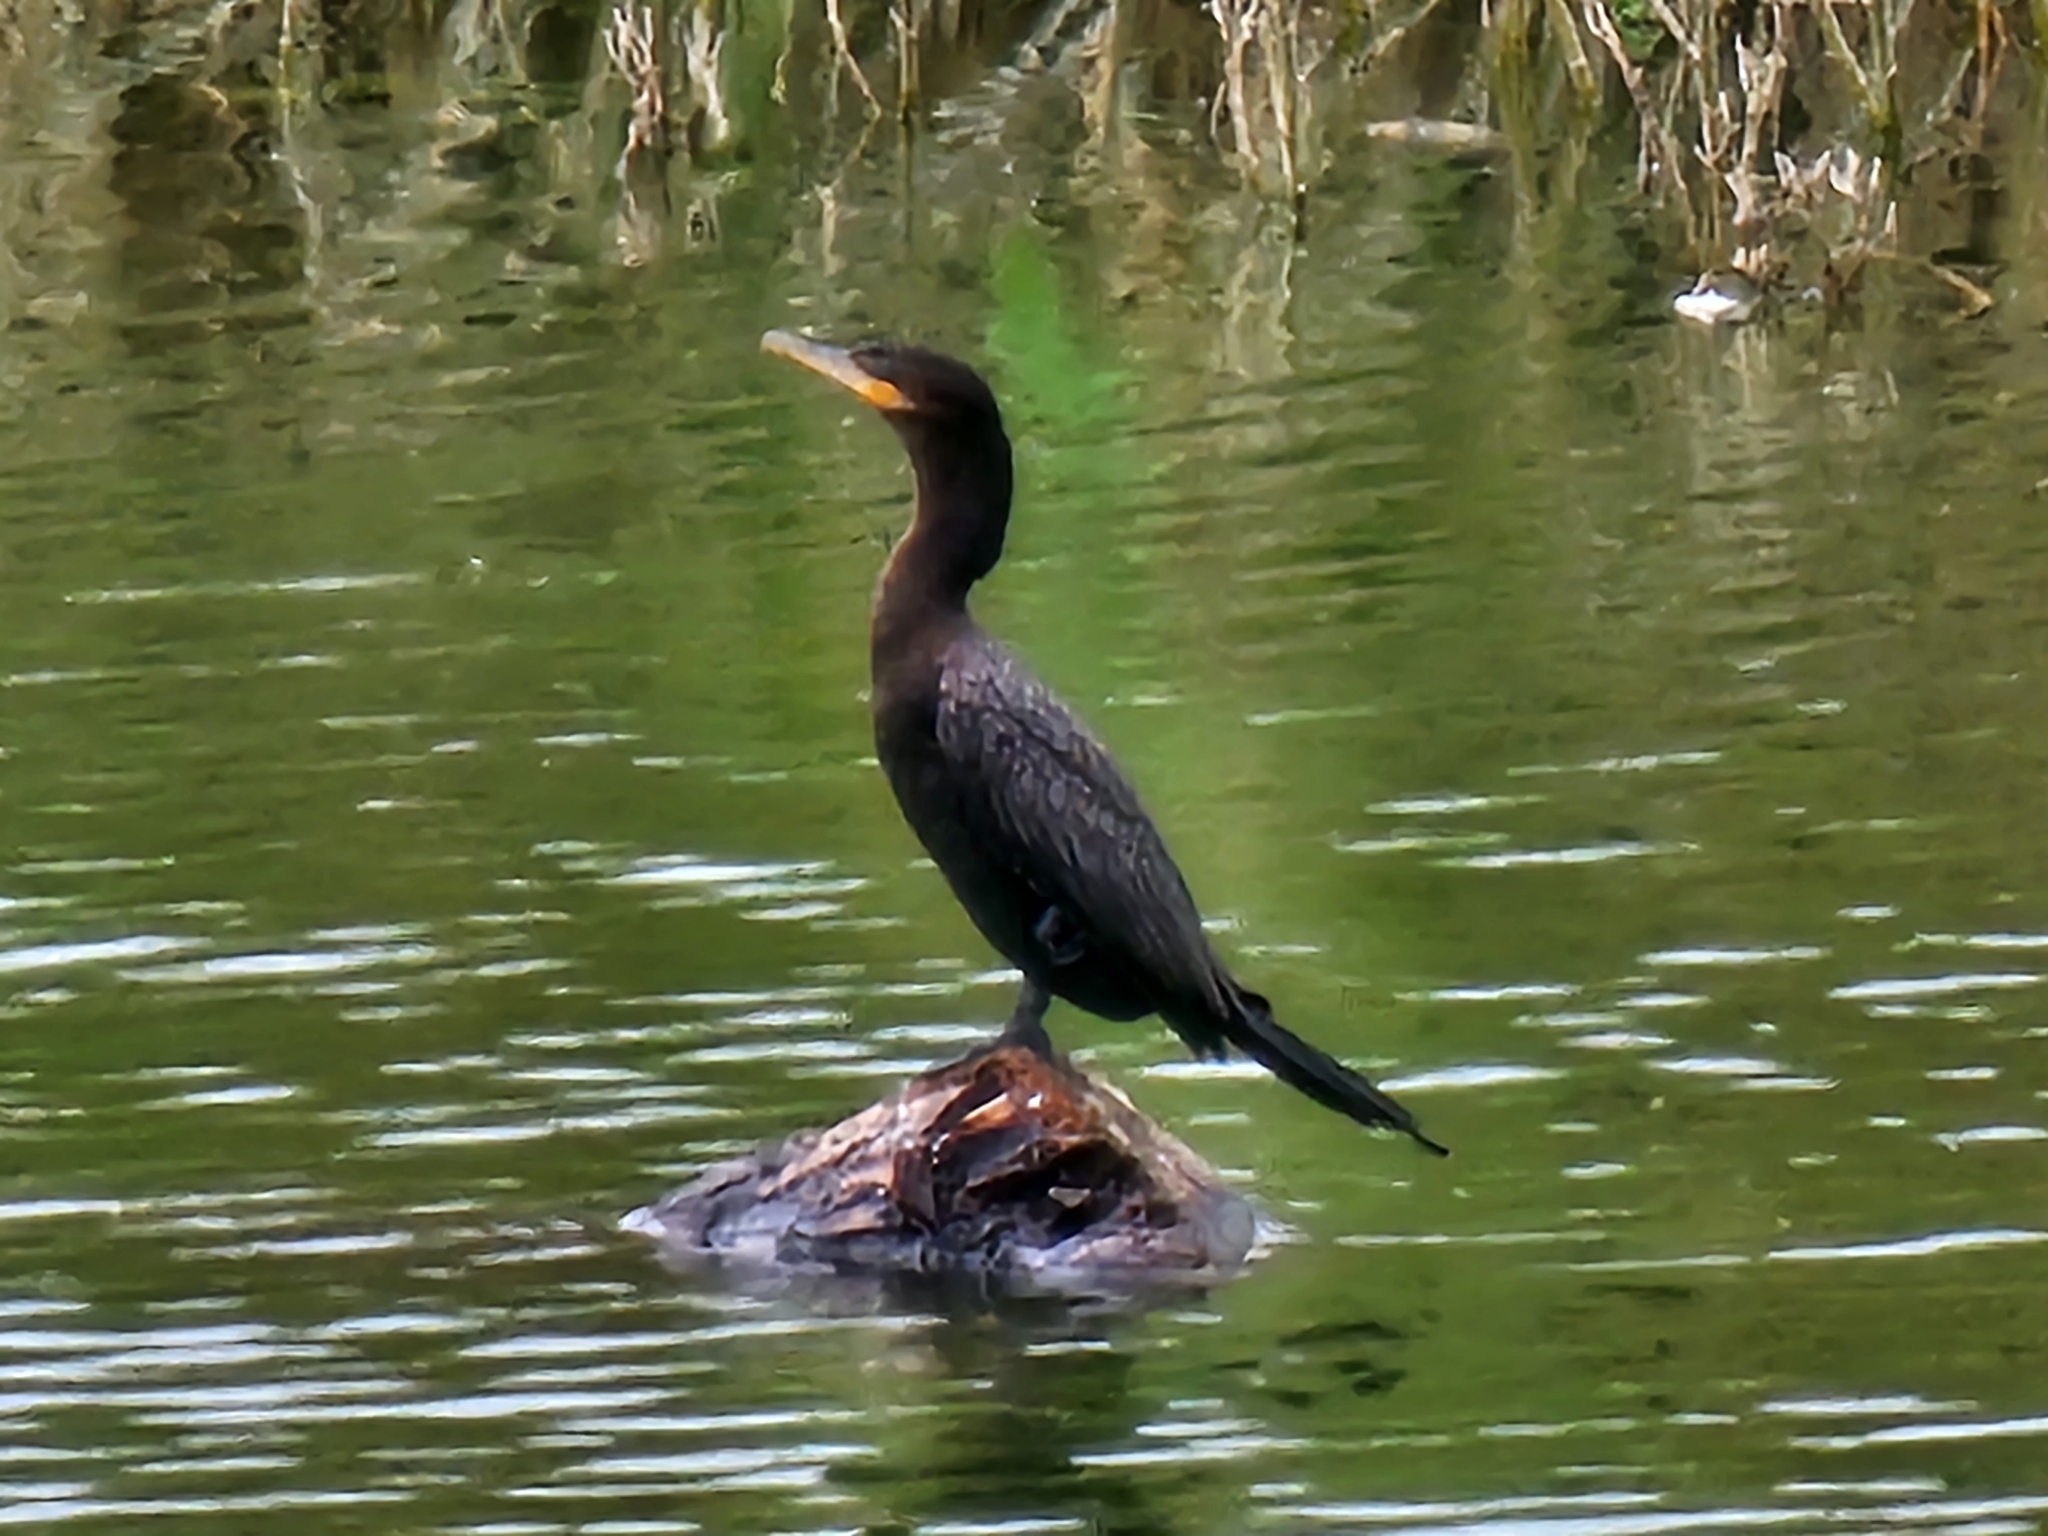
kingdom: Animalia
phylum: Chordata
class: Aves
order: Suliformes
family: Phalacrocoracidae
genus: Phalacrocorax
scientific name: Phalacrocorax brasilianus
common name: Neotropic cormorant
